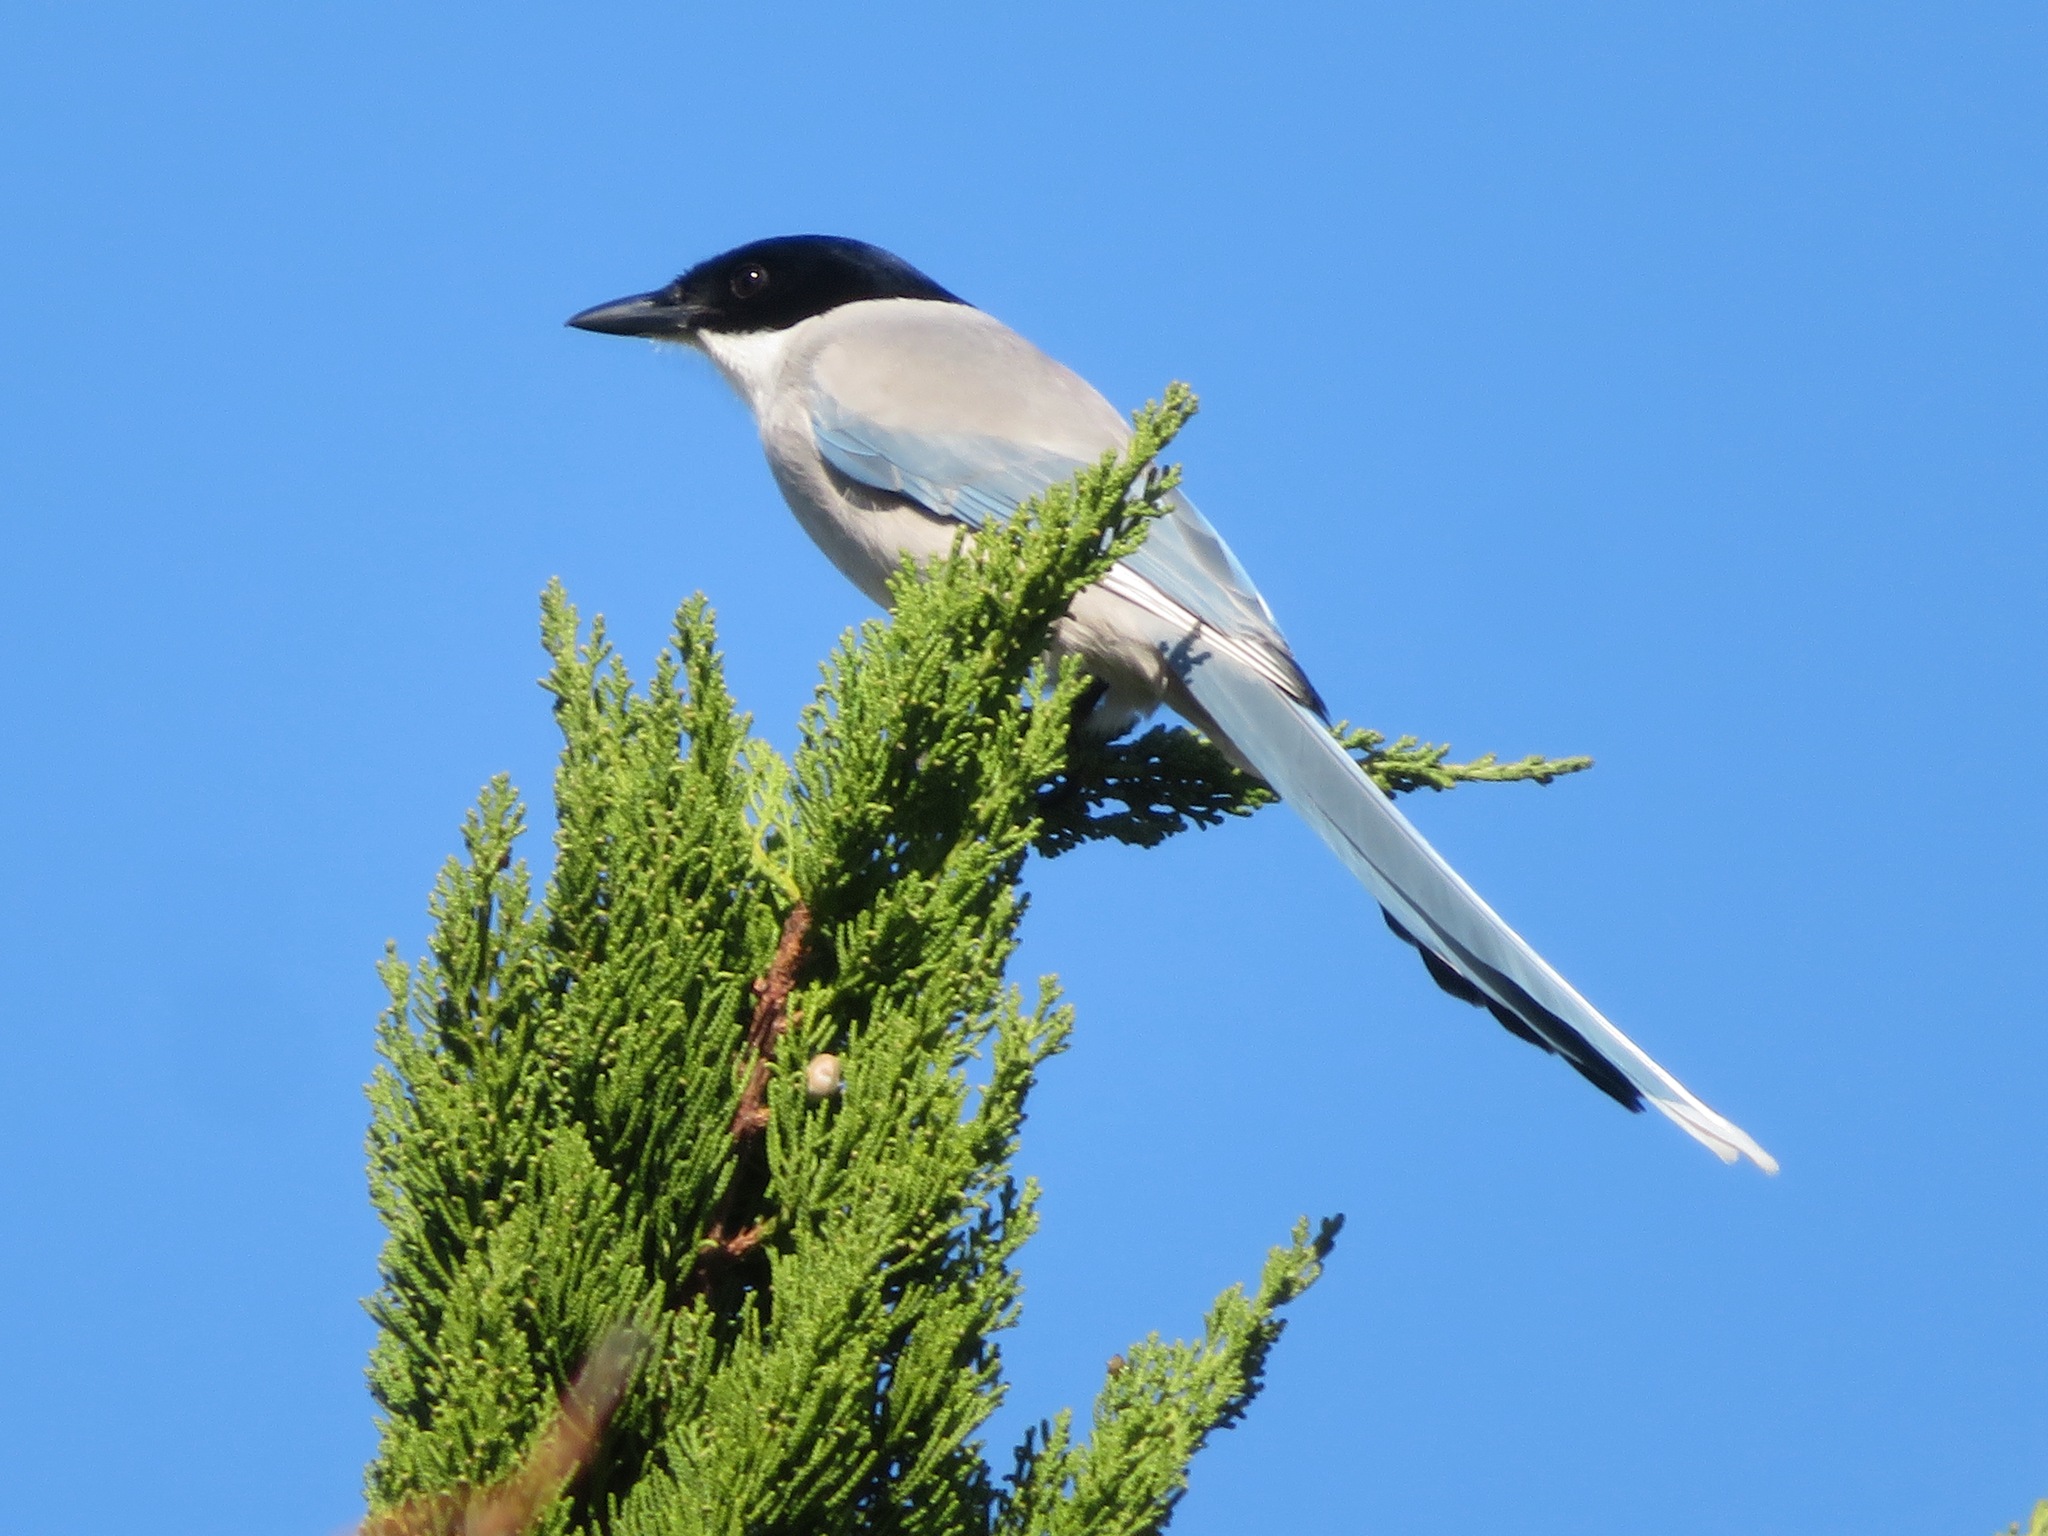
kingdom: Animalia
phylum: Chordata
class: Aves
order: Passeriformes
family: Corvidae
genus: Cyanopica
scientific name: Cyanopica cyanus
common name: Azure-winged magpie
